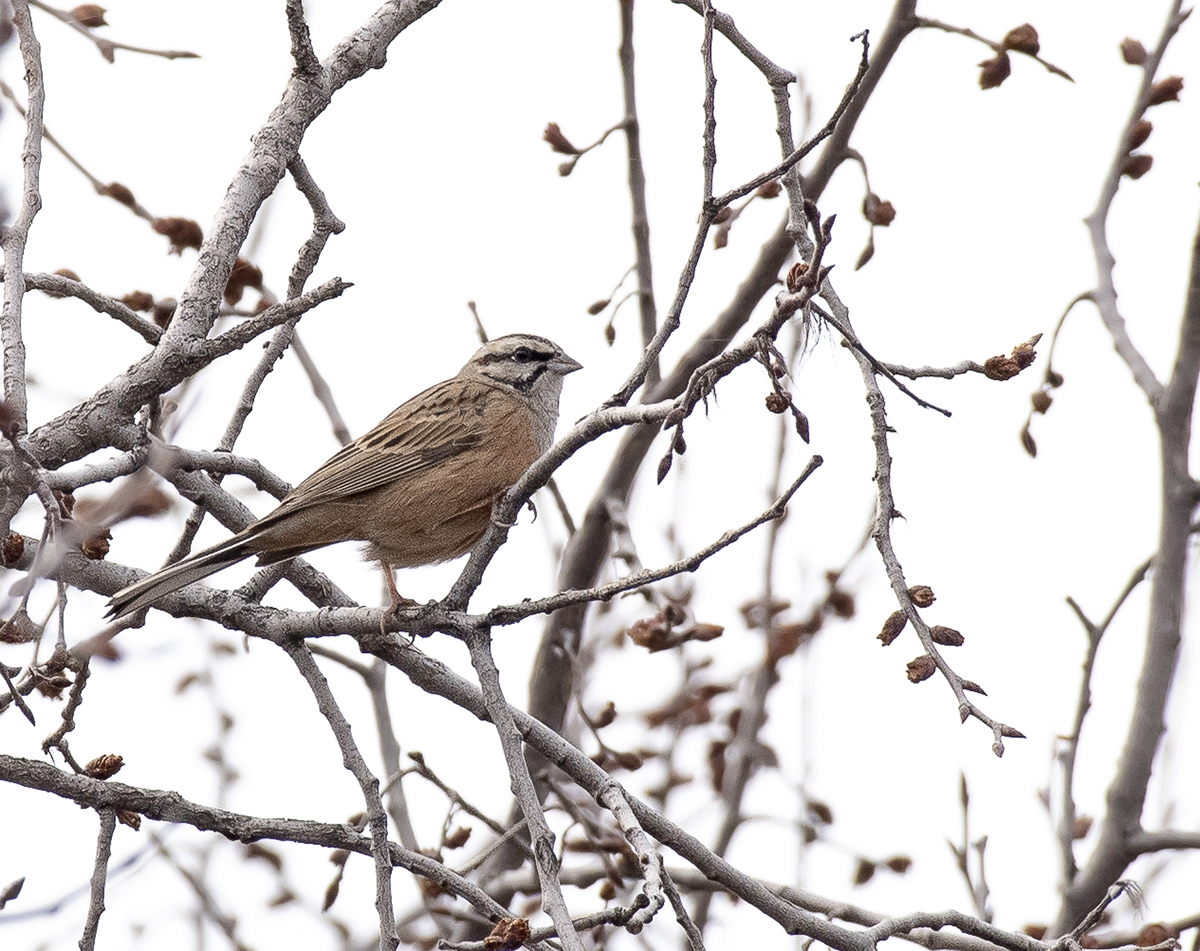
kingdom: Animalia
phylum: Chordata
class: Aves
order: Passeriformes
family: Emberizidae
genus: Emberiza
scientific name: Emberiza cia
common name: Rock bunting
